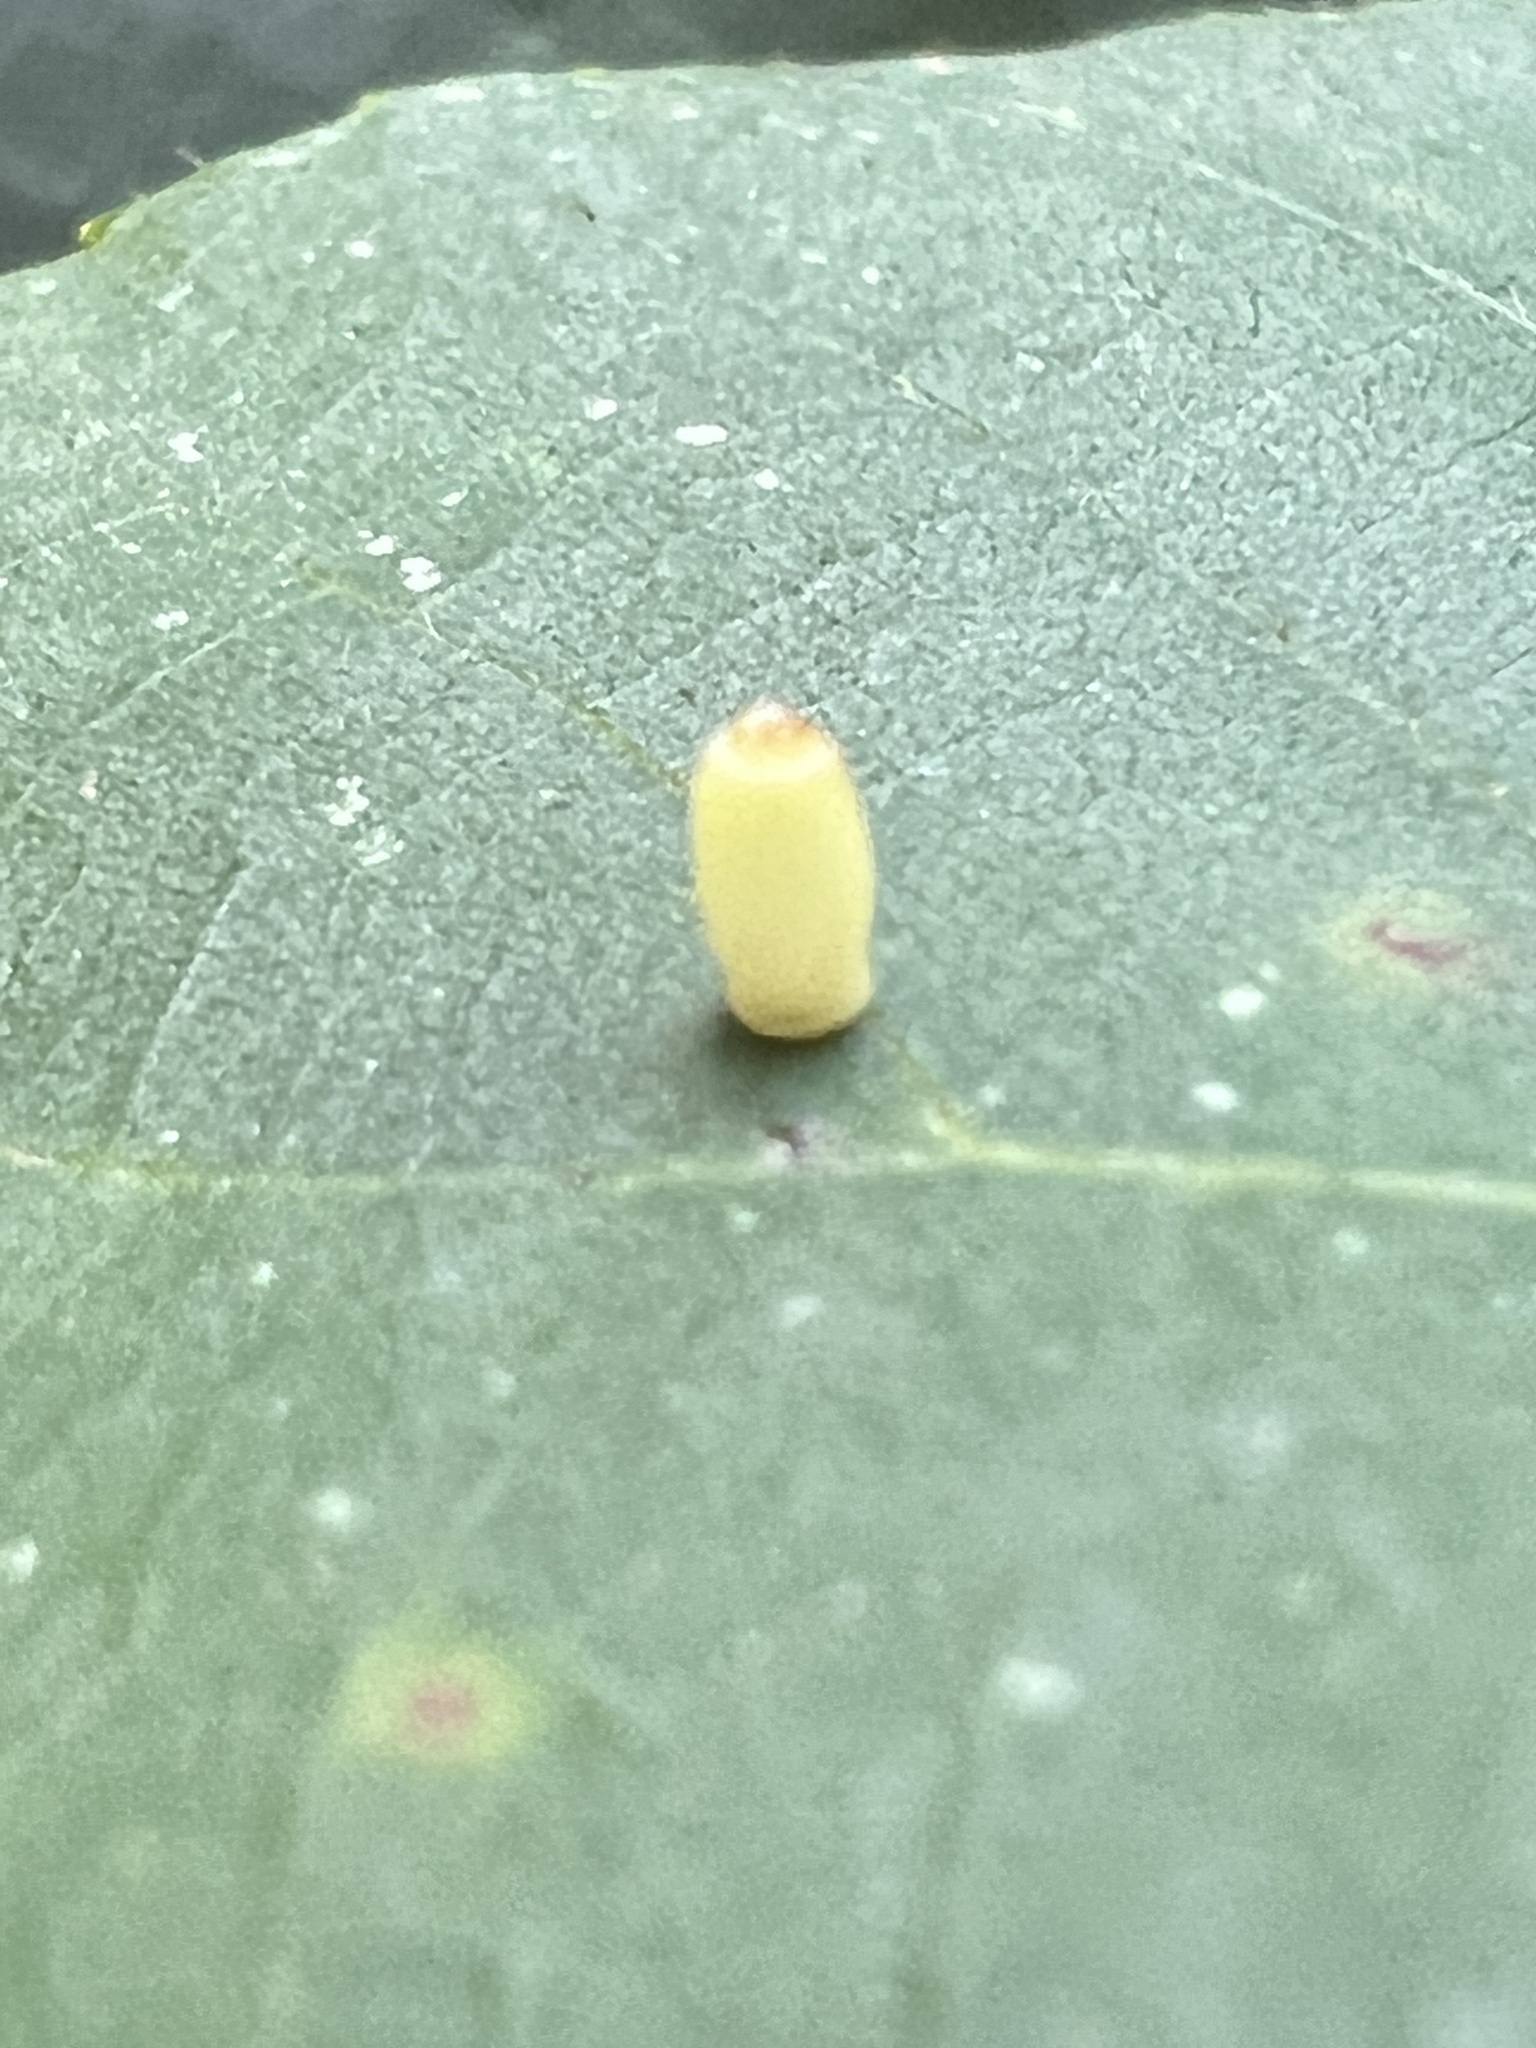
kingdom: Animalia
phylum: Arthropoda
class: Insecta
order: Diptera
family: Cecidomyiidae
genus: Caryomyia
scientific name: Caryomyia urnula
